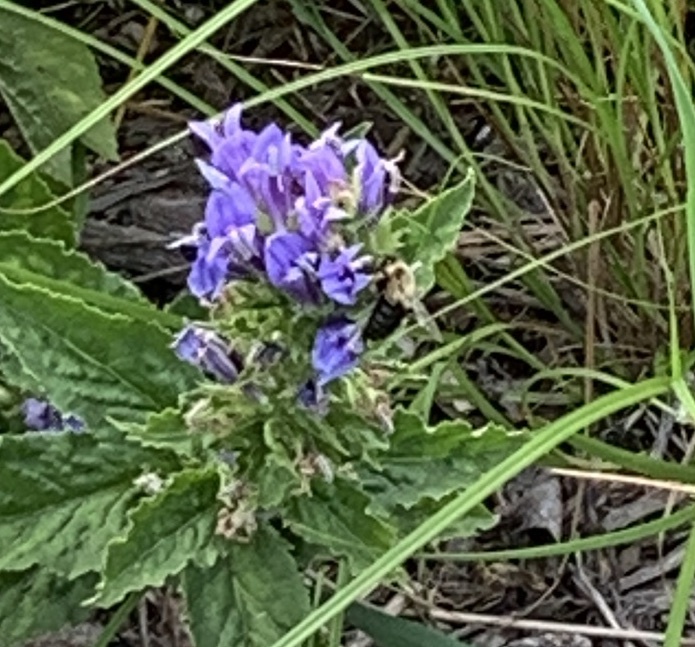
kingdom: Animalia
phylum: Arthropoda
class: Insecta
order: Hymenoptera
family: Apidae
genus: Bombus
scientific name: Bombus impatiens
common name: Common eastern bumble bee
